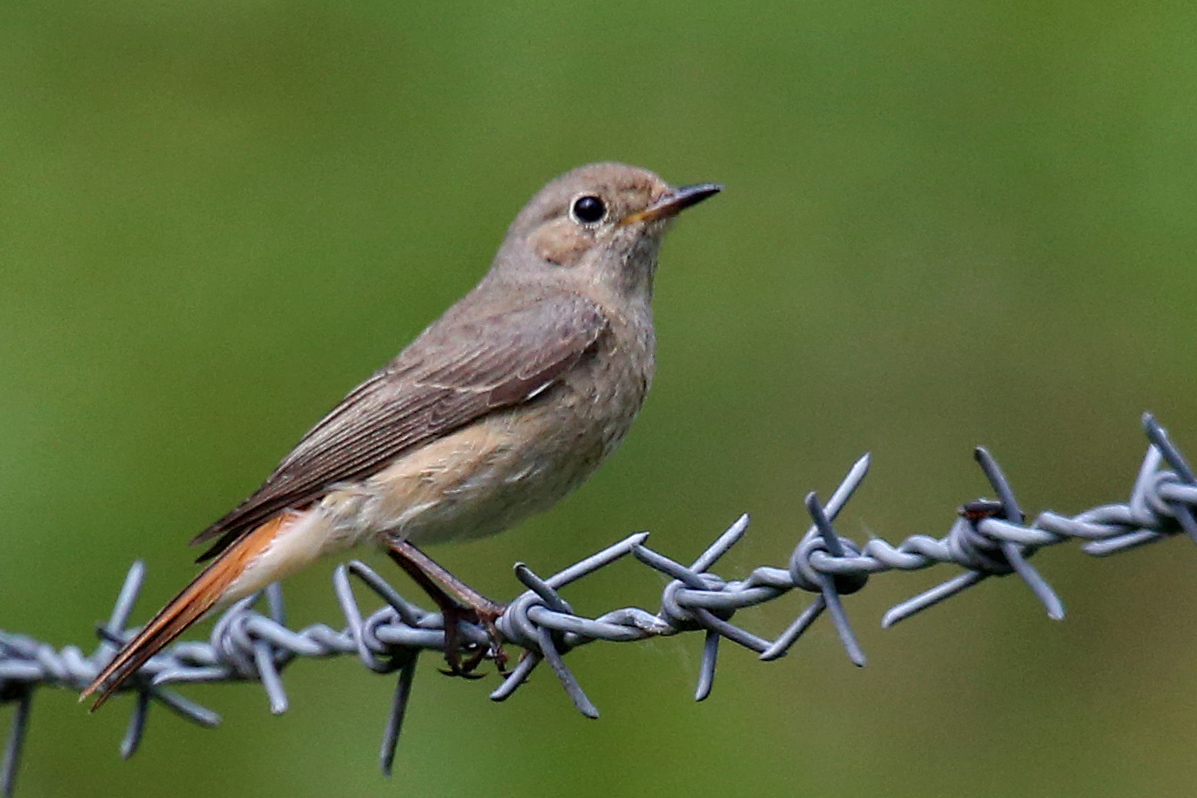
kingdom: Animalia
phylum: Chordata
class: Aves
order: Passeriformes
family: Muscicapidae
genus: Phoenicurus
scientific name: Phoenicurus phoenicurus
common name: Common redstart
